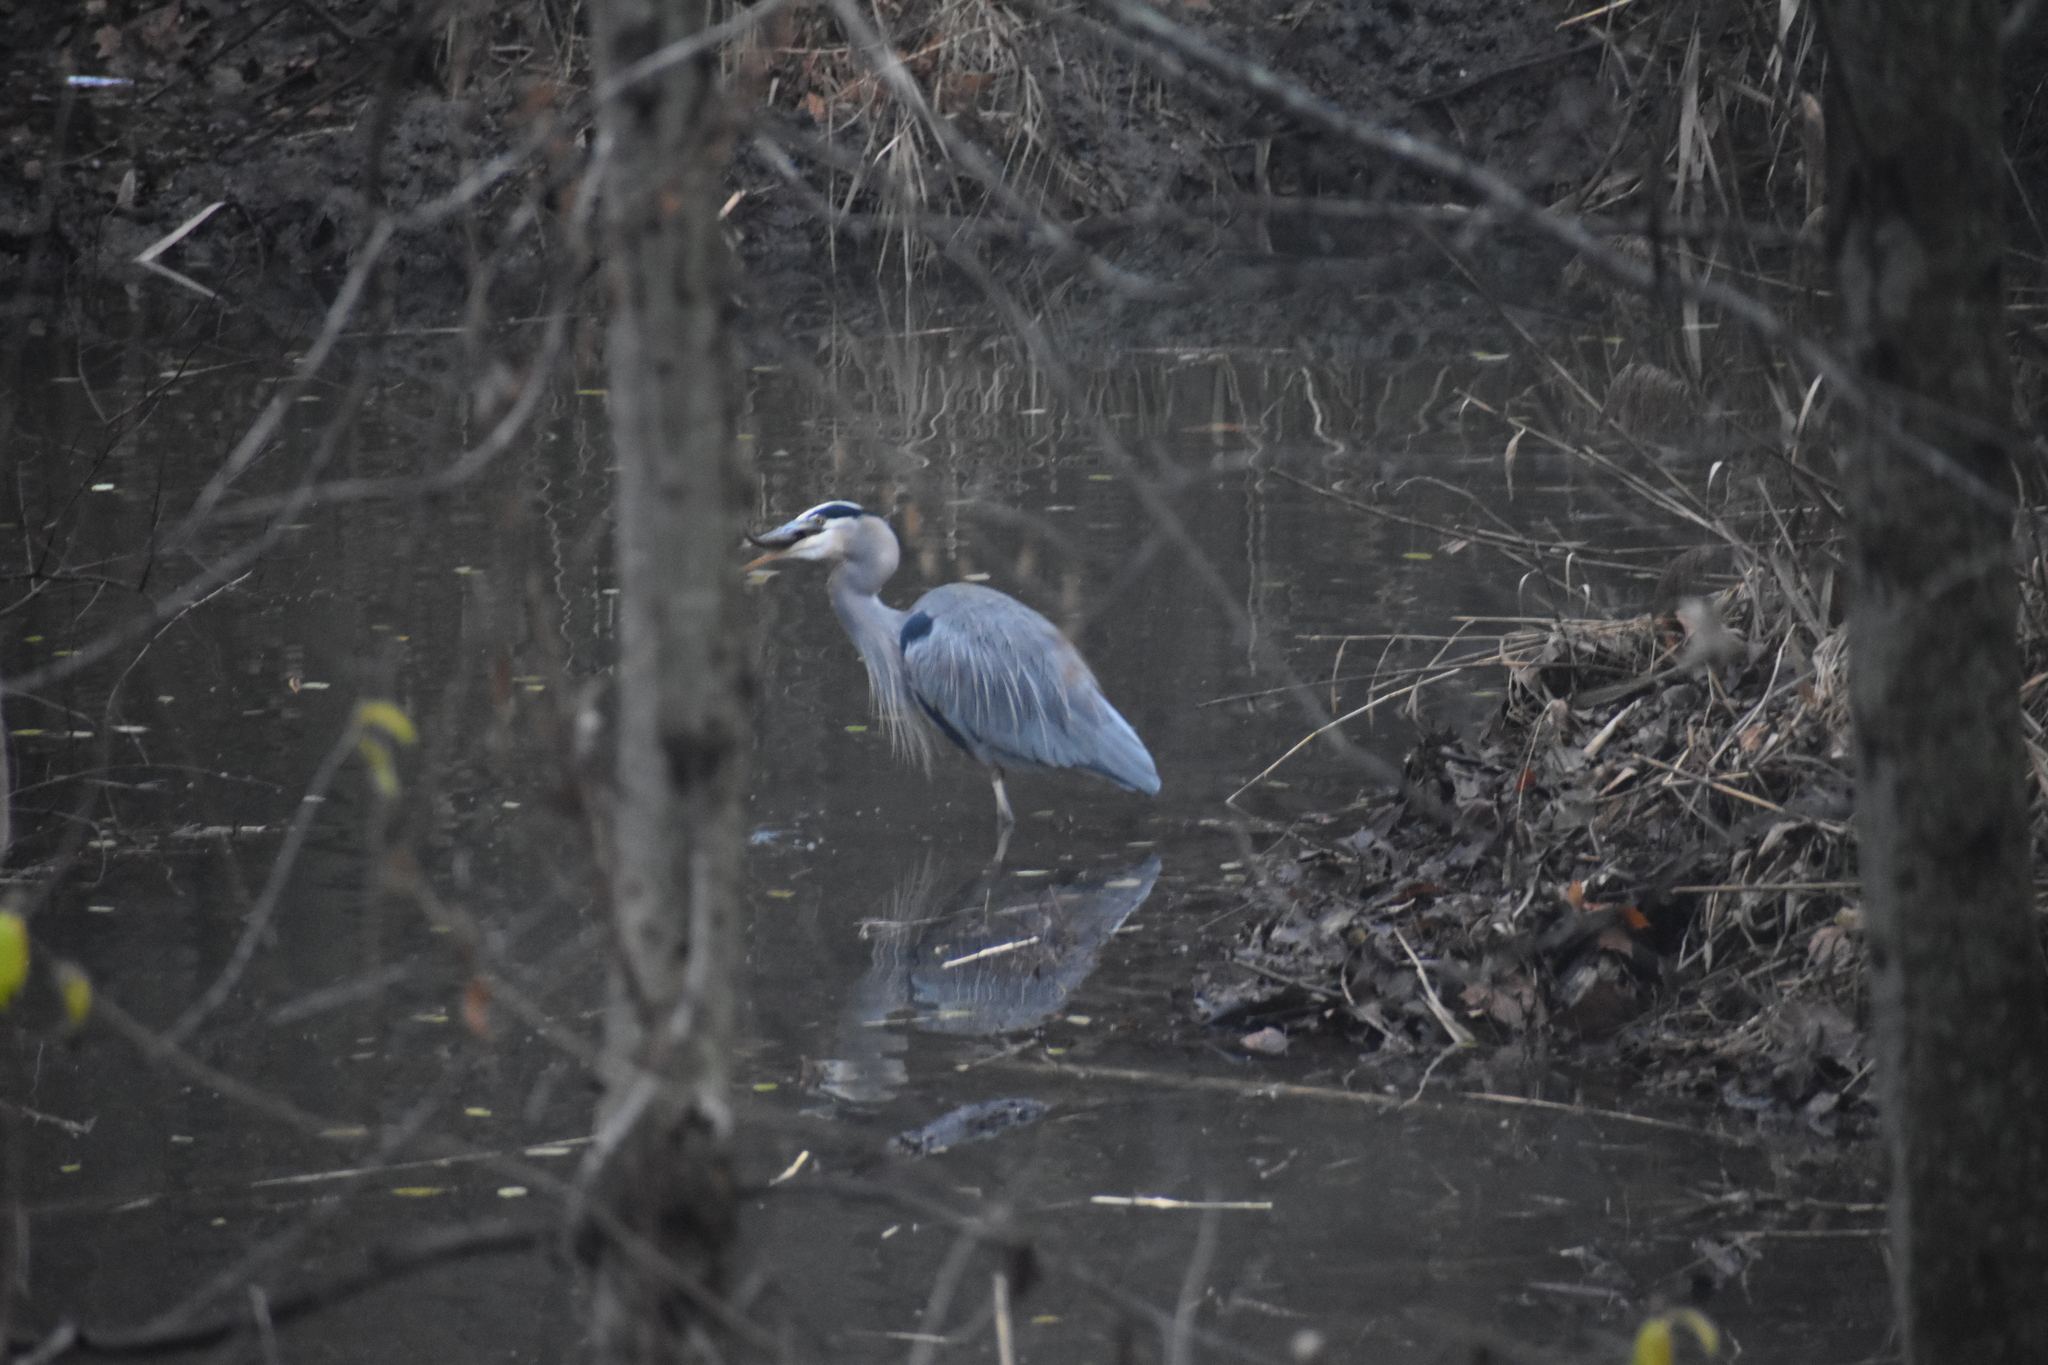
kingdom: Animalia
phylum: Chordata
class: Aves
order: Pelecaniformes
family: Ardeidae
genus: Ardea
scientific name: Ardea herodias
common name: Great blue heron
